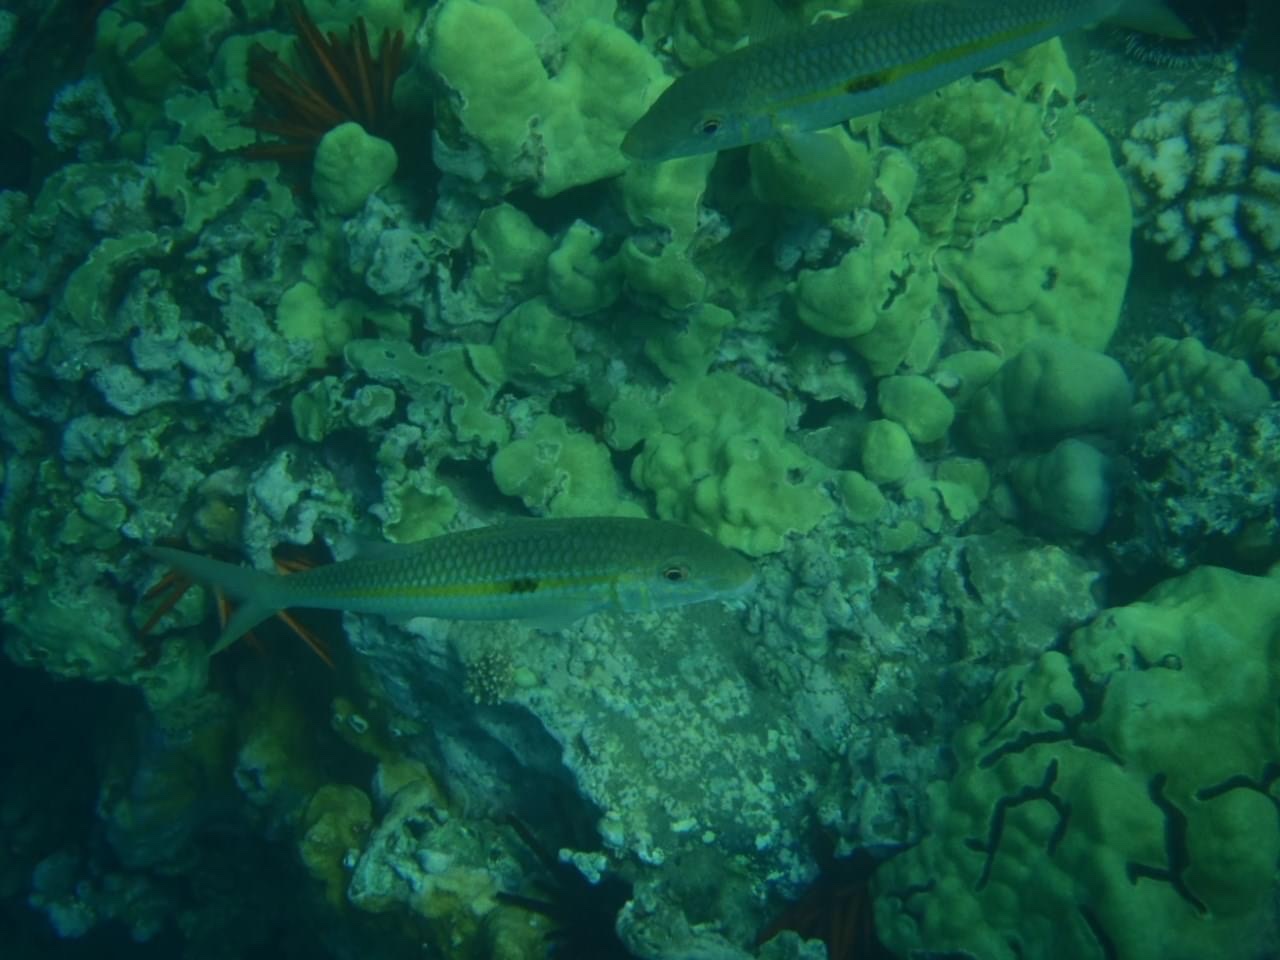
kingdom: Animalia
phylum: Chordata
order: Perciformes
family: Mullidae
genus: Mulloidichthys
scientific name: Mulloidichthys flavolineatus
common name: Yellowstripe goatfish
